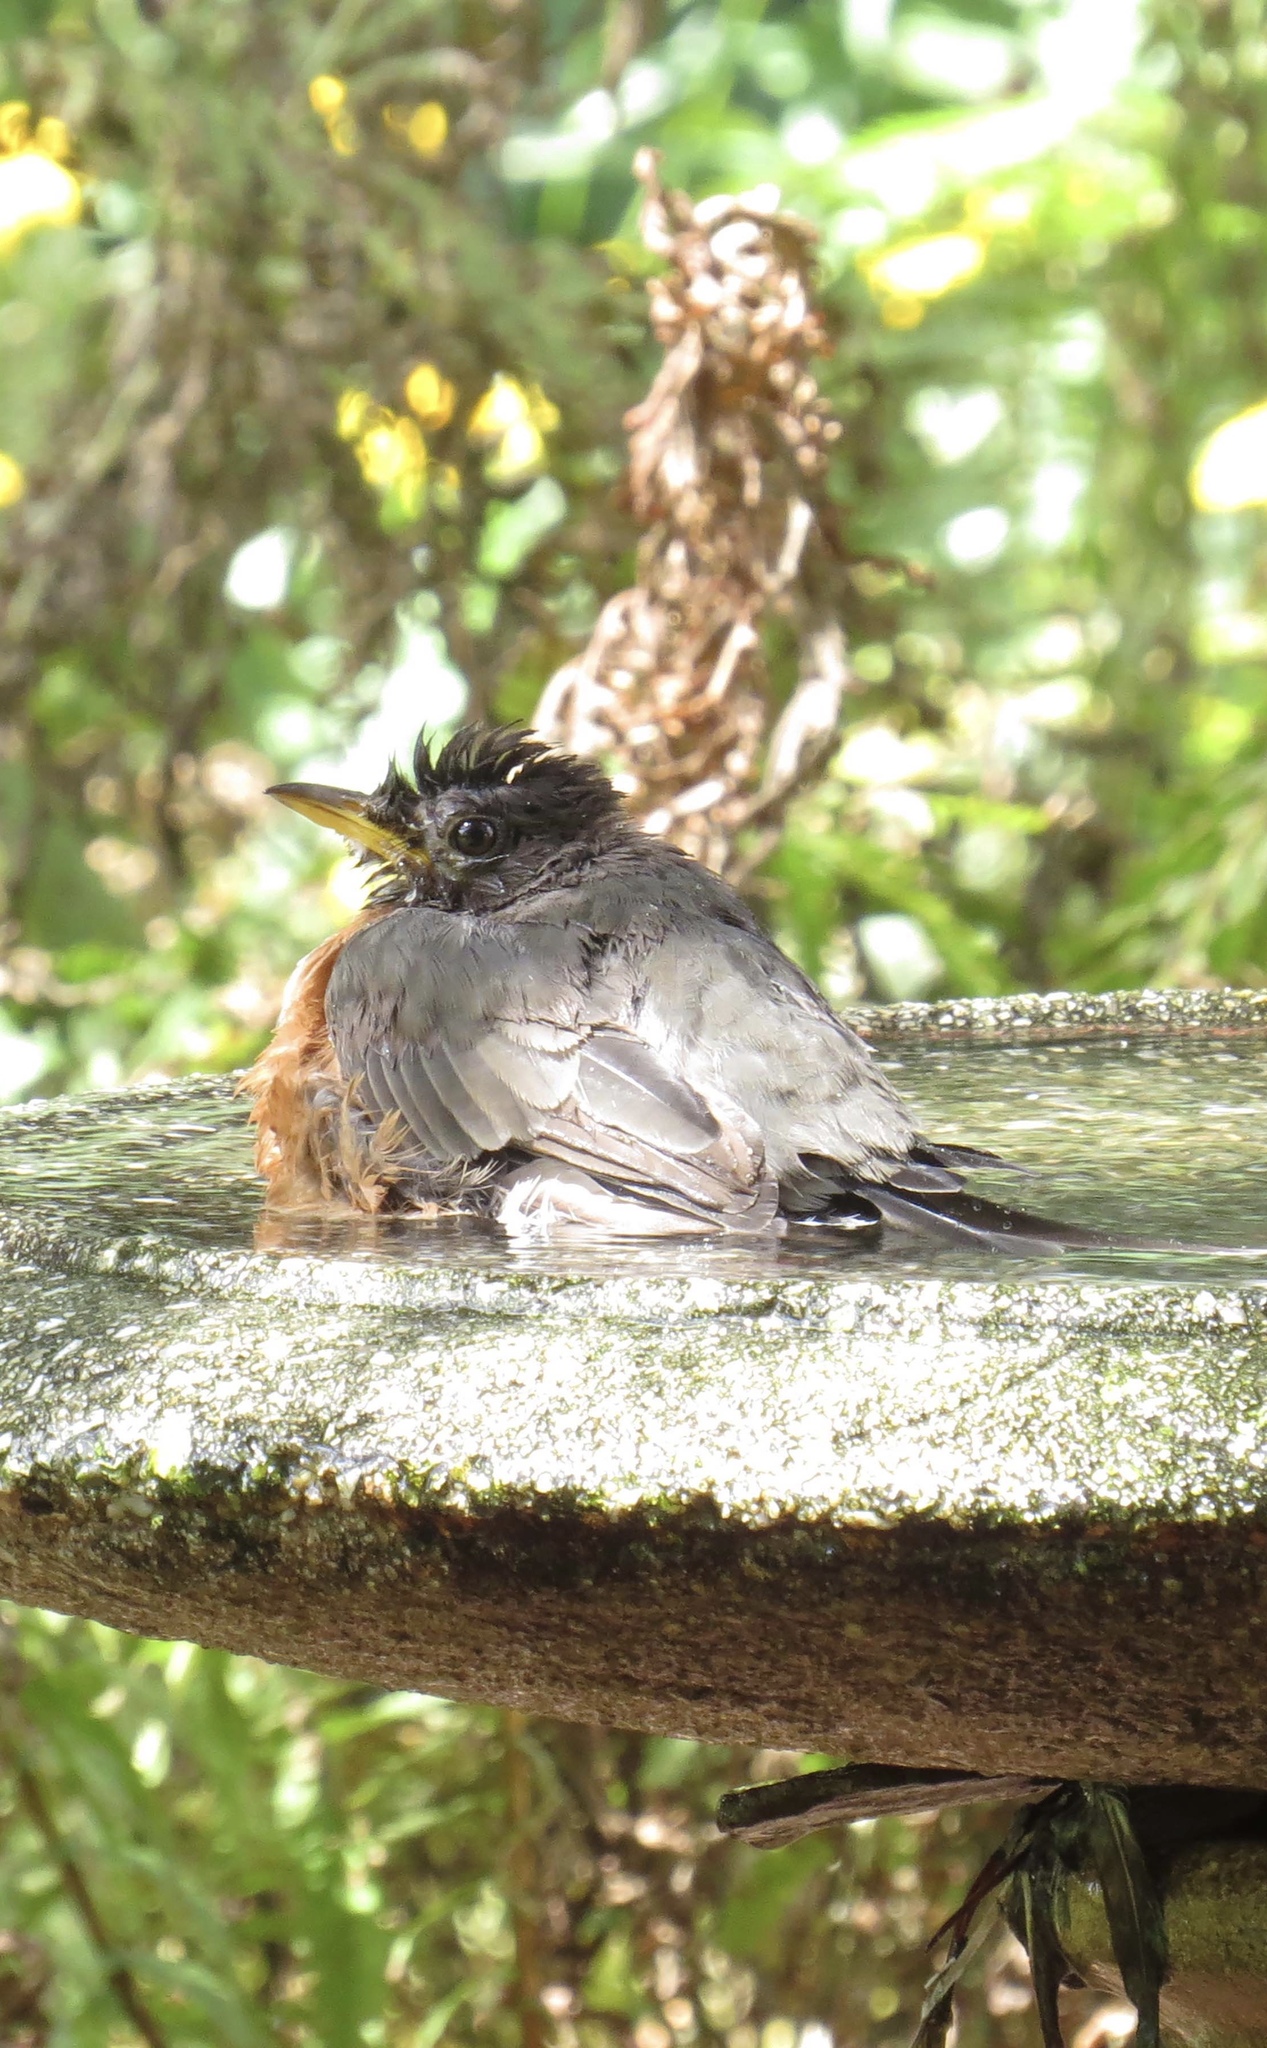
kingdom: Animalia
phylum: Chordata
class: Aves
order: Passeriformes
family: Turdidae
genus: Turdus
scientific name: Turdus migratorius
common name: American robin
